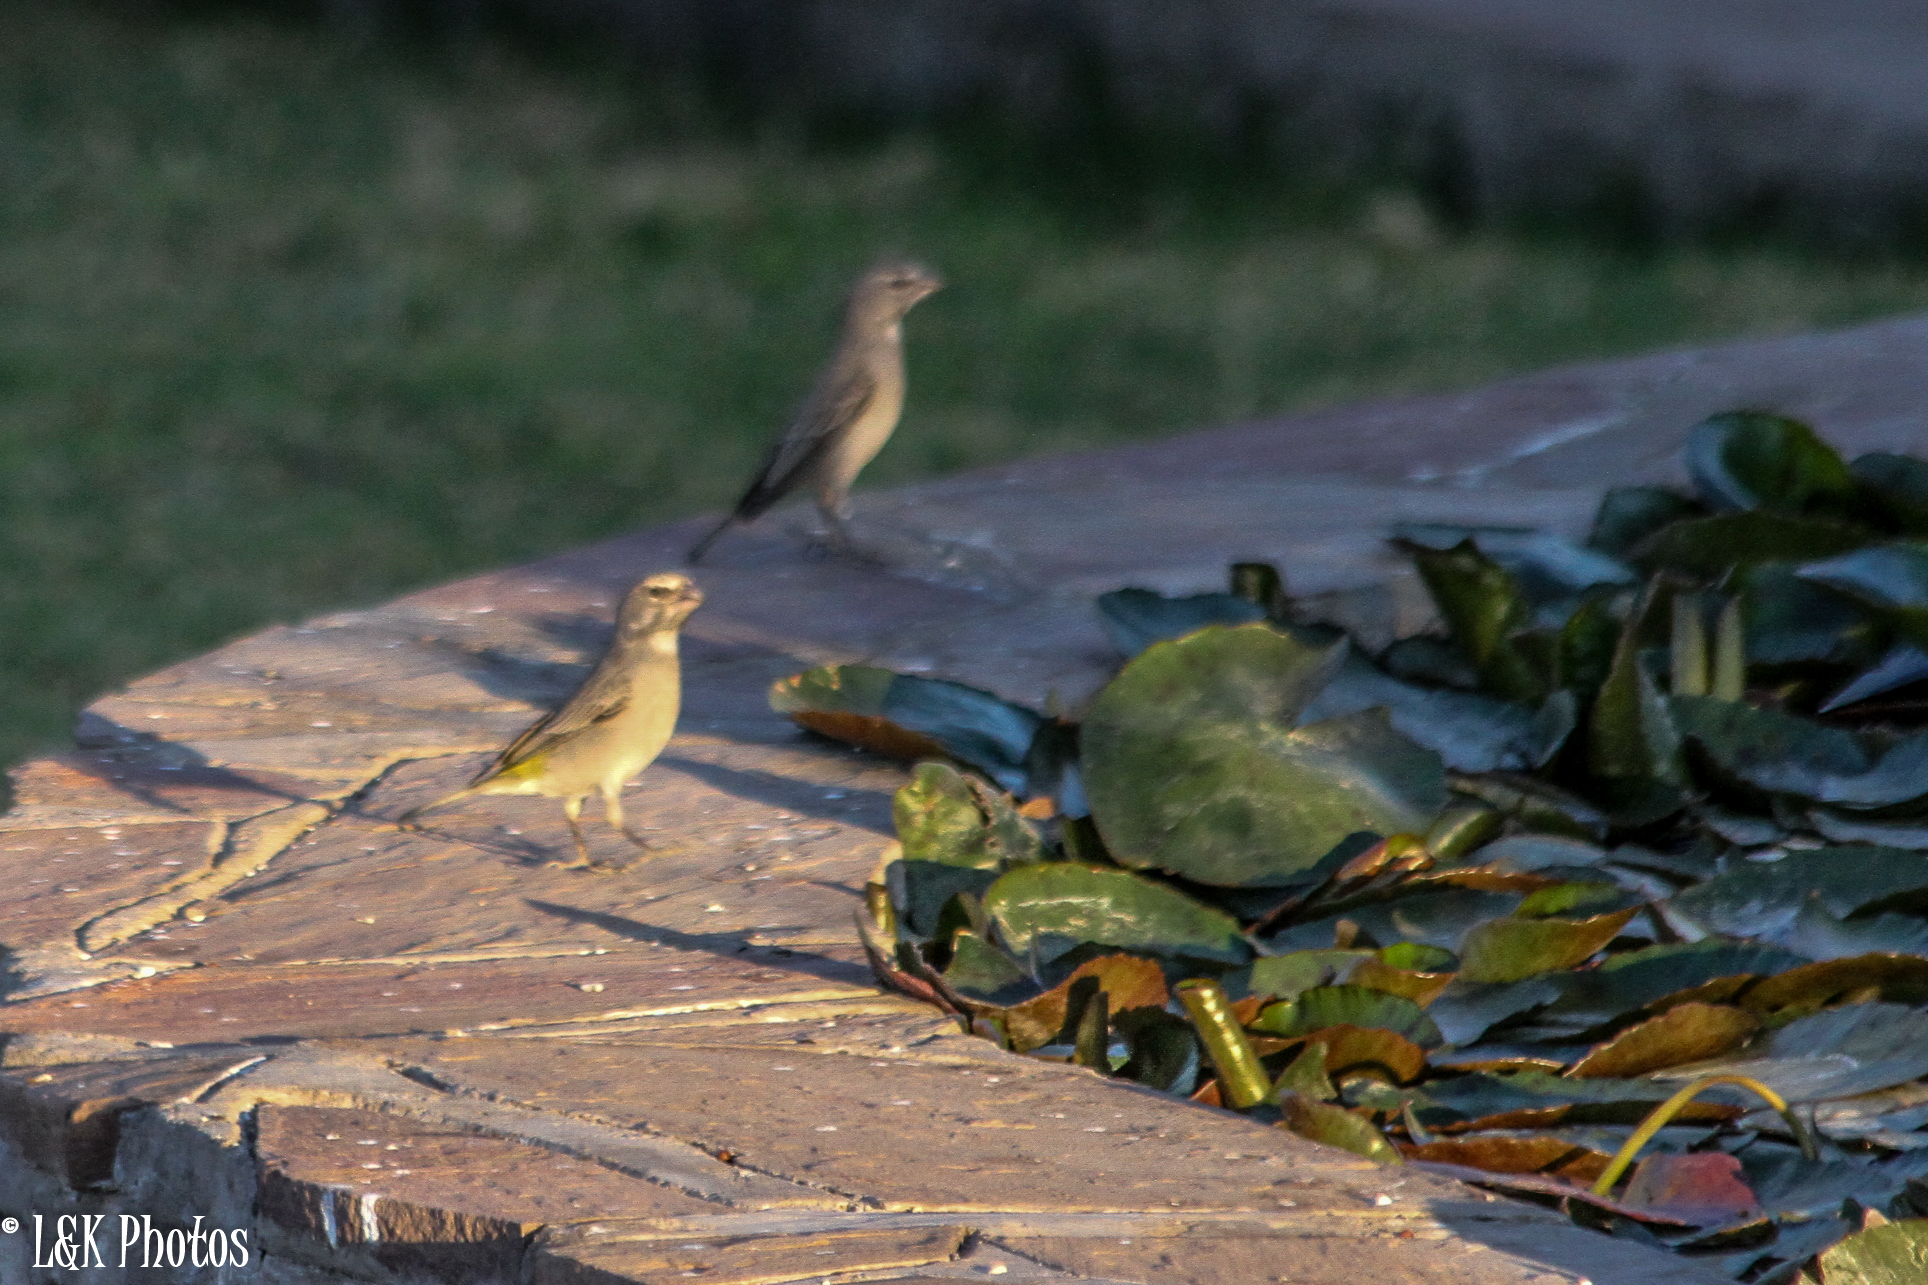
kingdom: Animalia
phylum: Chordata
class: Aves
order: Passeriformes
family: Fringillidae
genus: Crithagra
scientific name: Crithagra albogularis
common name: White-throated canary
